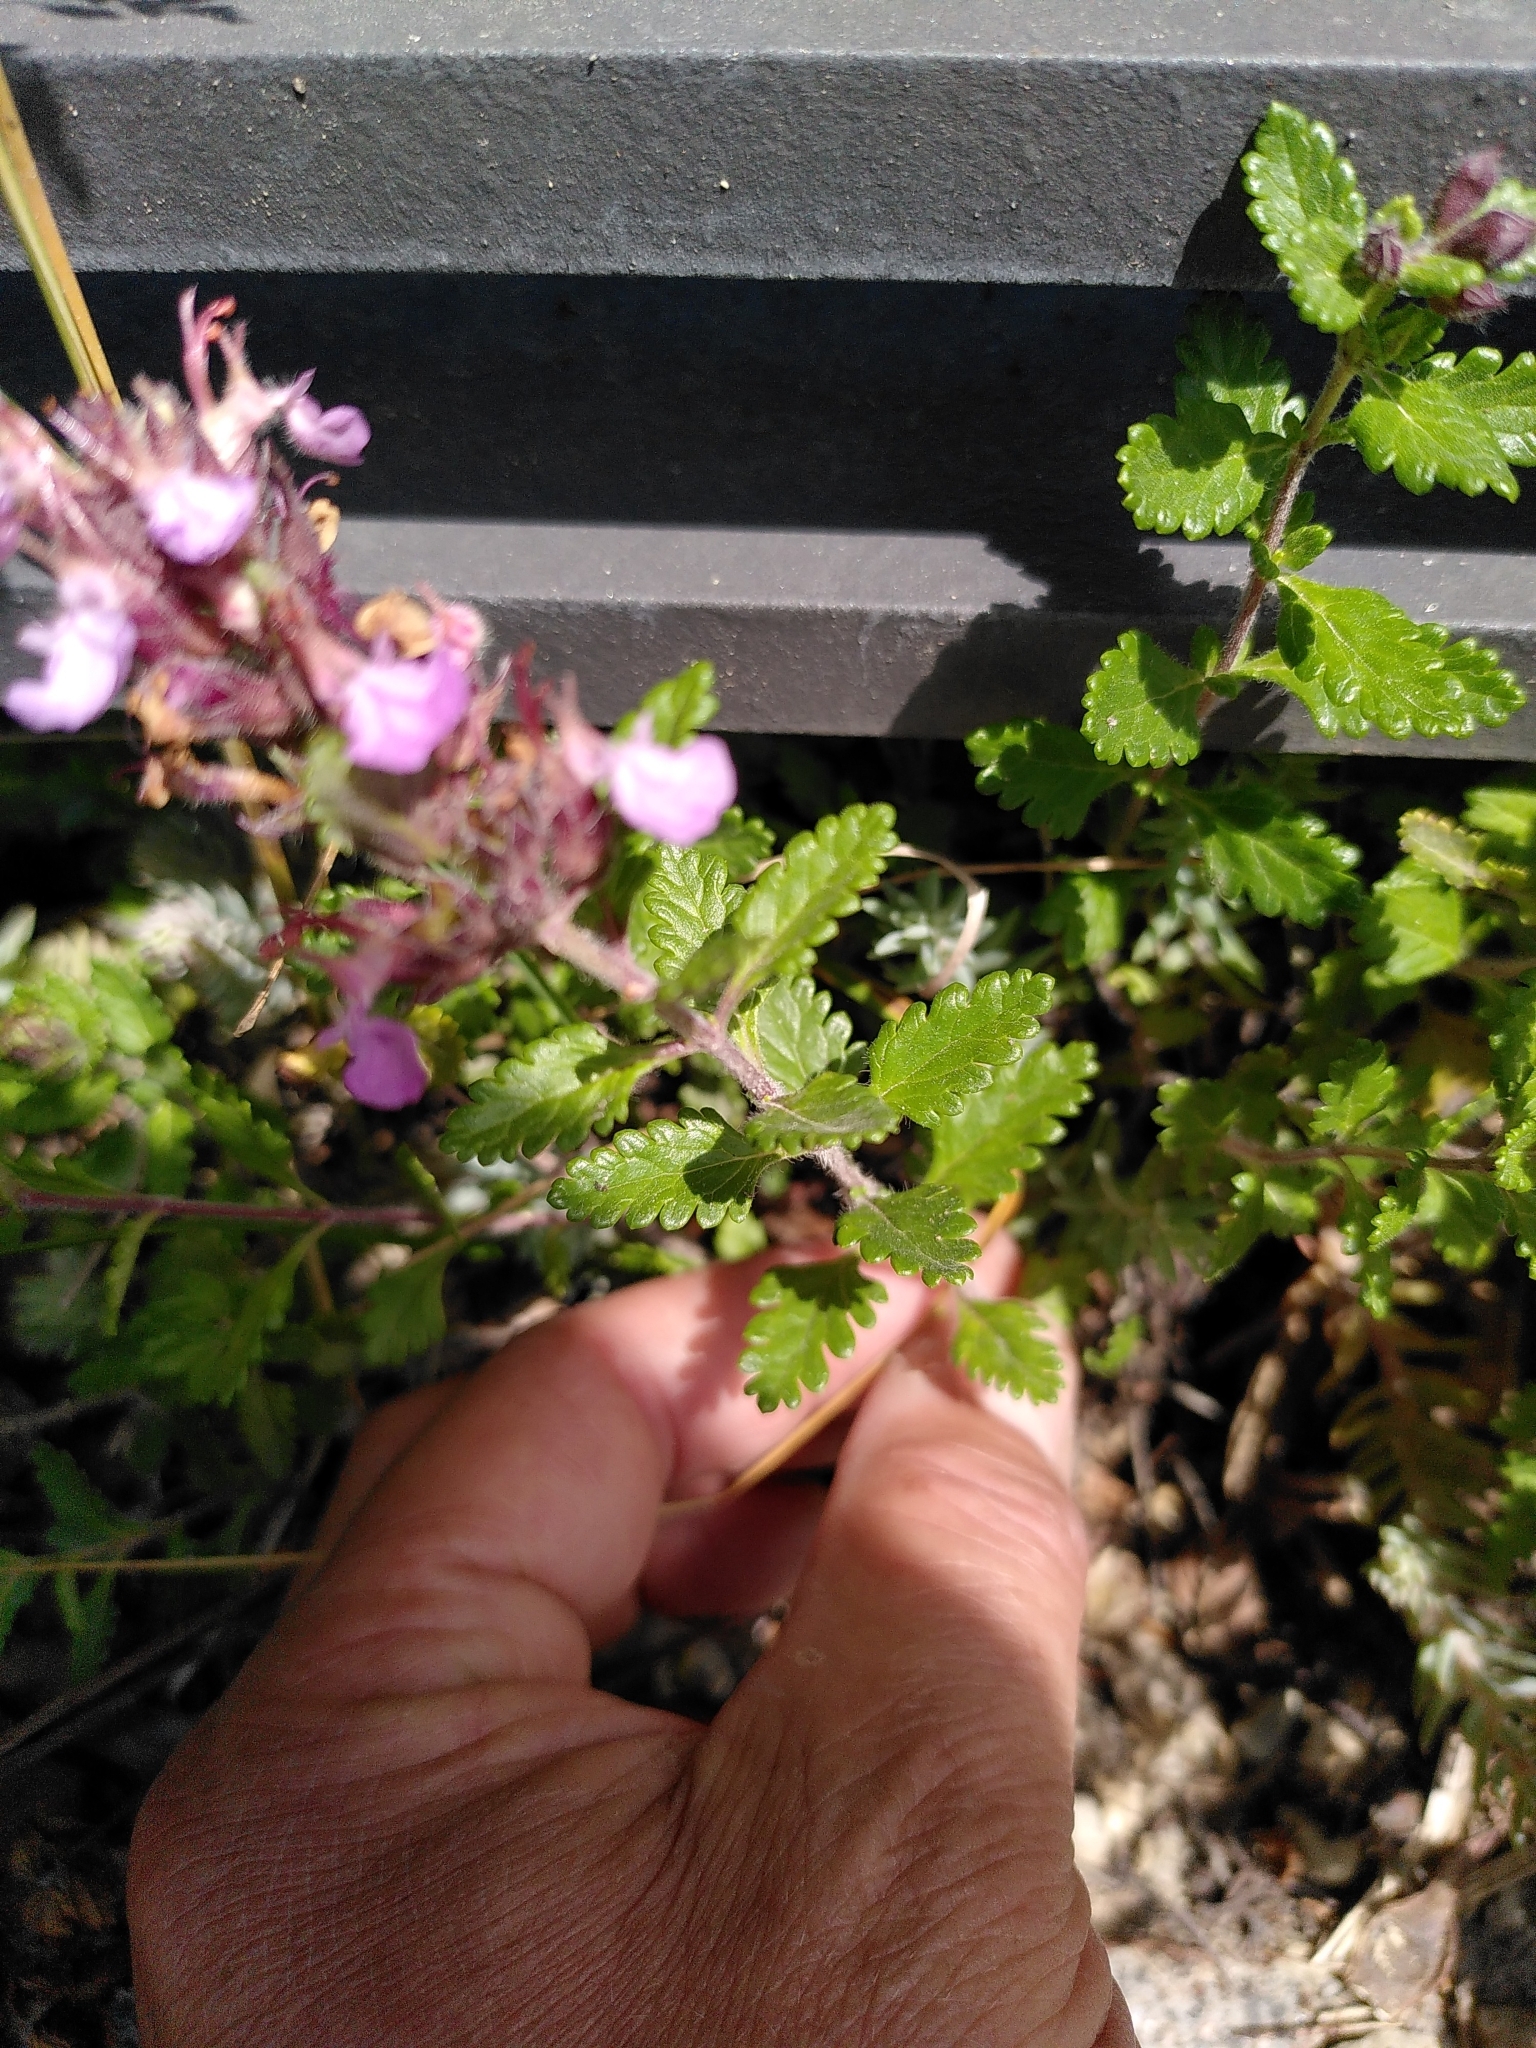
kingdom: Plantae
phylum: Tracheophyta
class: Magnoliopsida
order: Lamiales
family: Lamiaceae
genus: Teucrium
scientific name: Teucrium chamaedrys
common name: Wall germander
